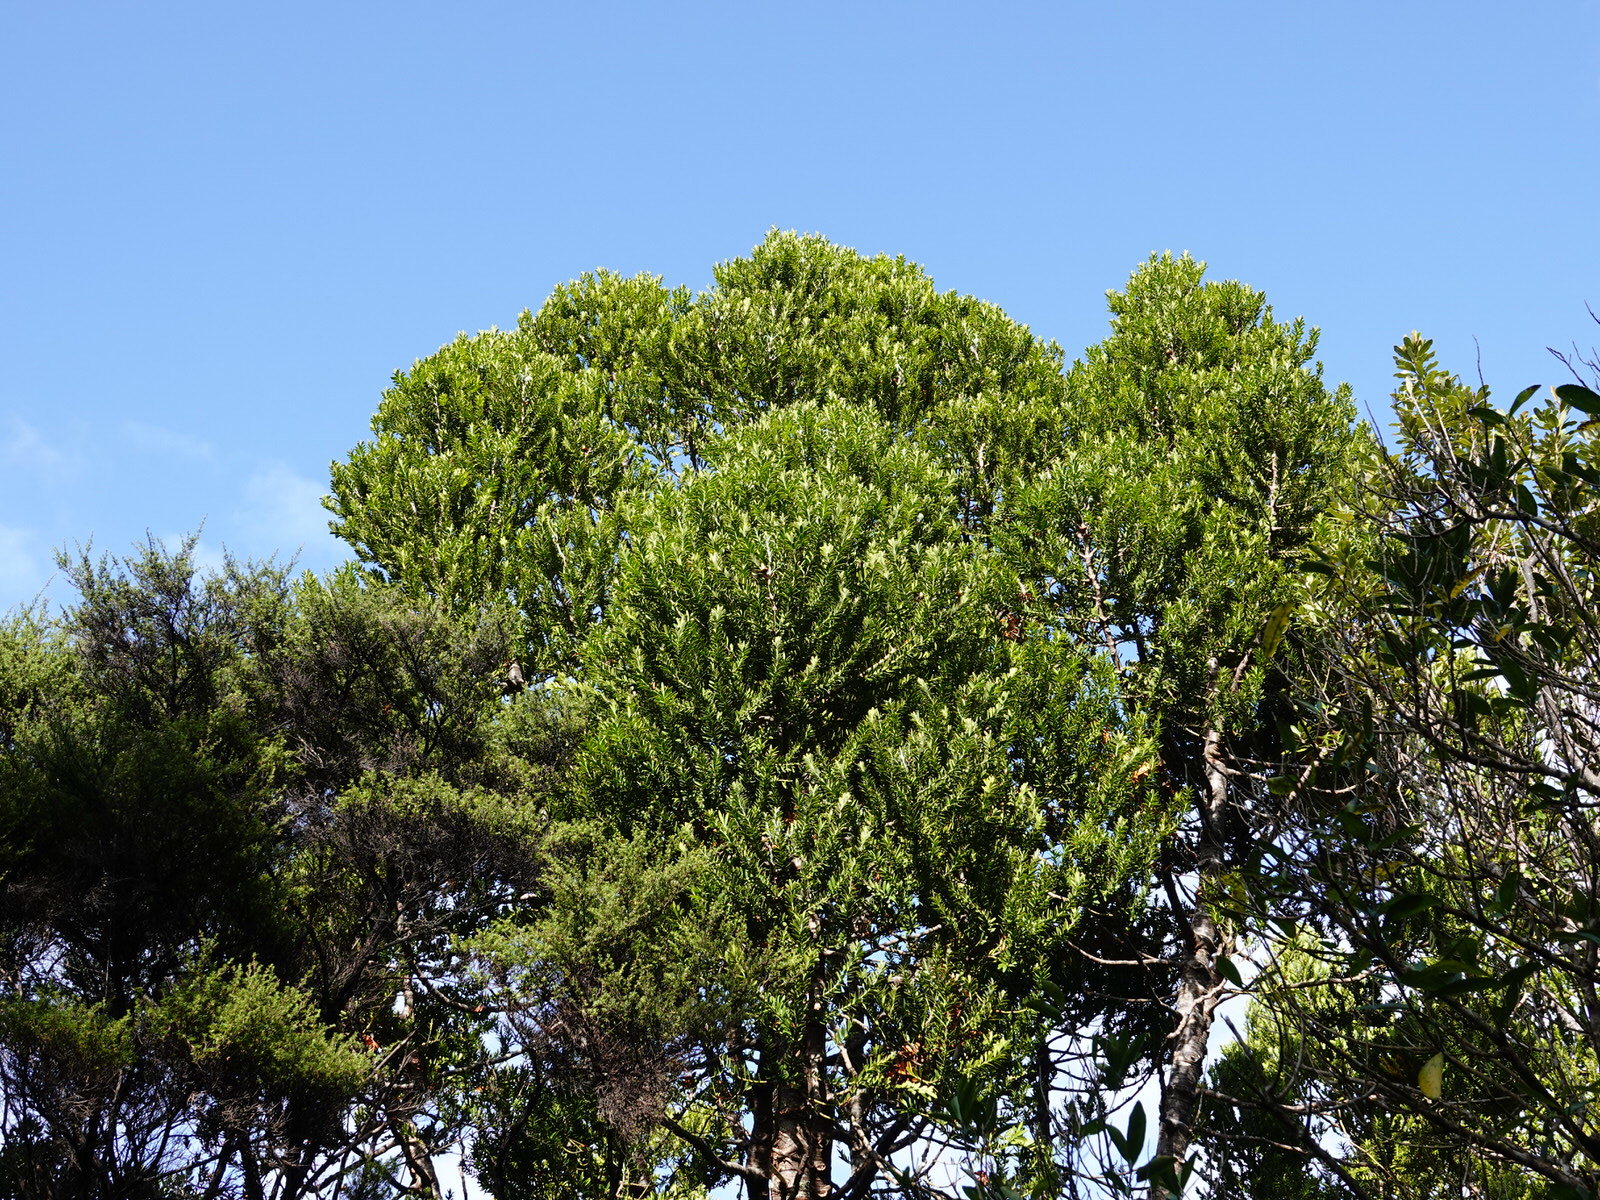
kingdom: Plantae
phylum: Tracheophyta
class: Pinopsida
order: Pinales
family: Araucariaceae
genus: Agathis
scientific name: Agathis australis
